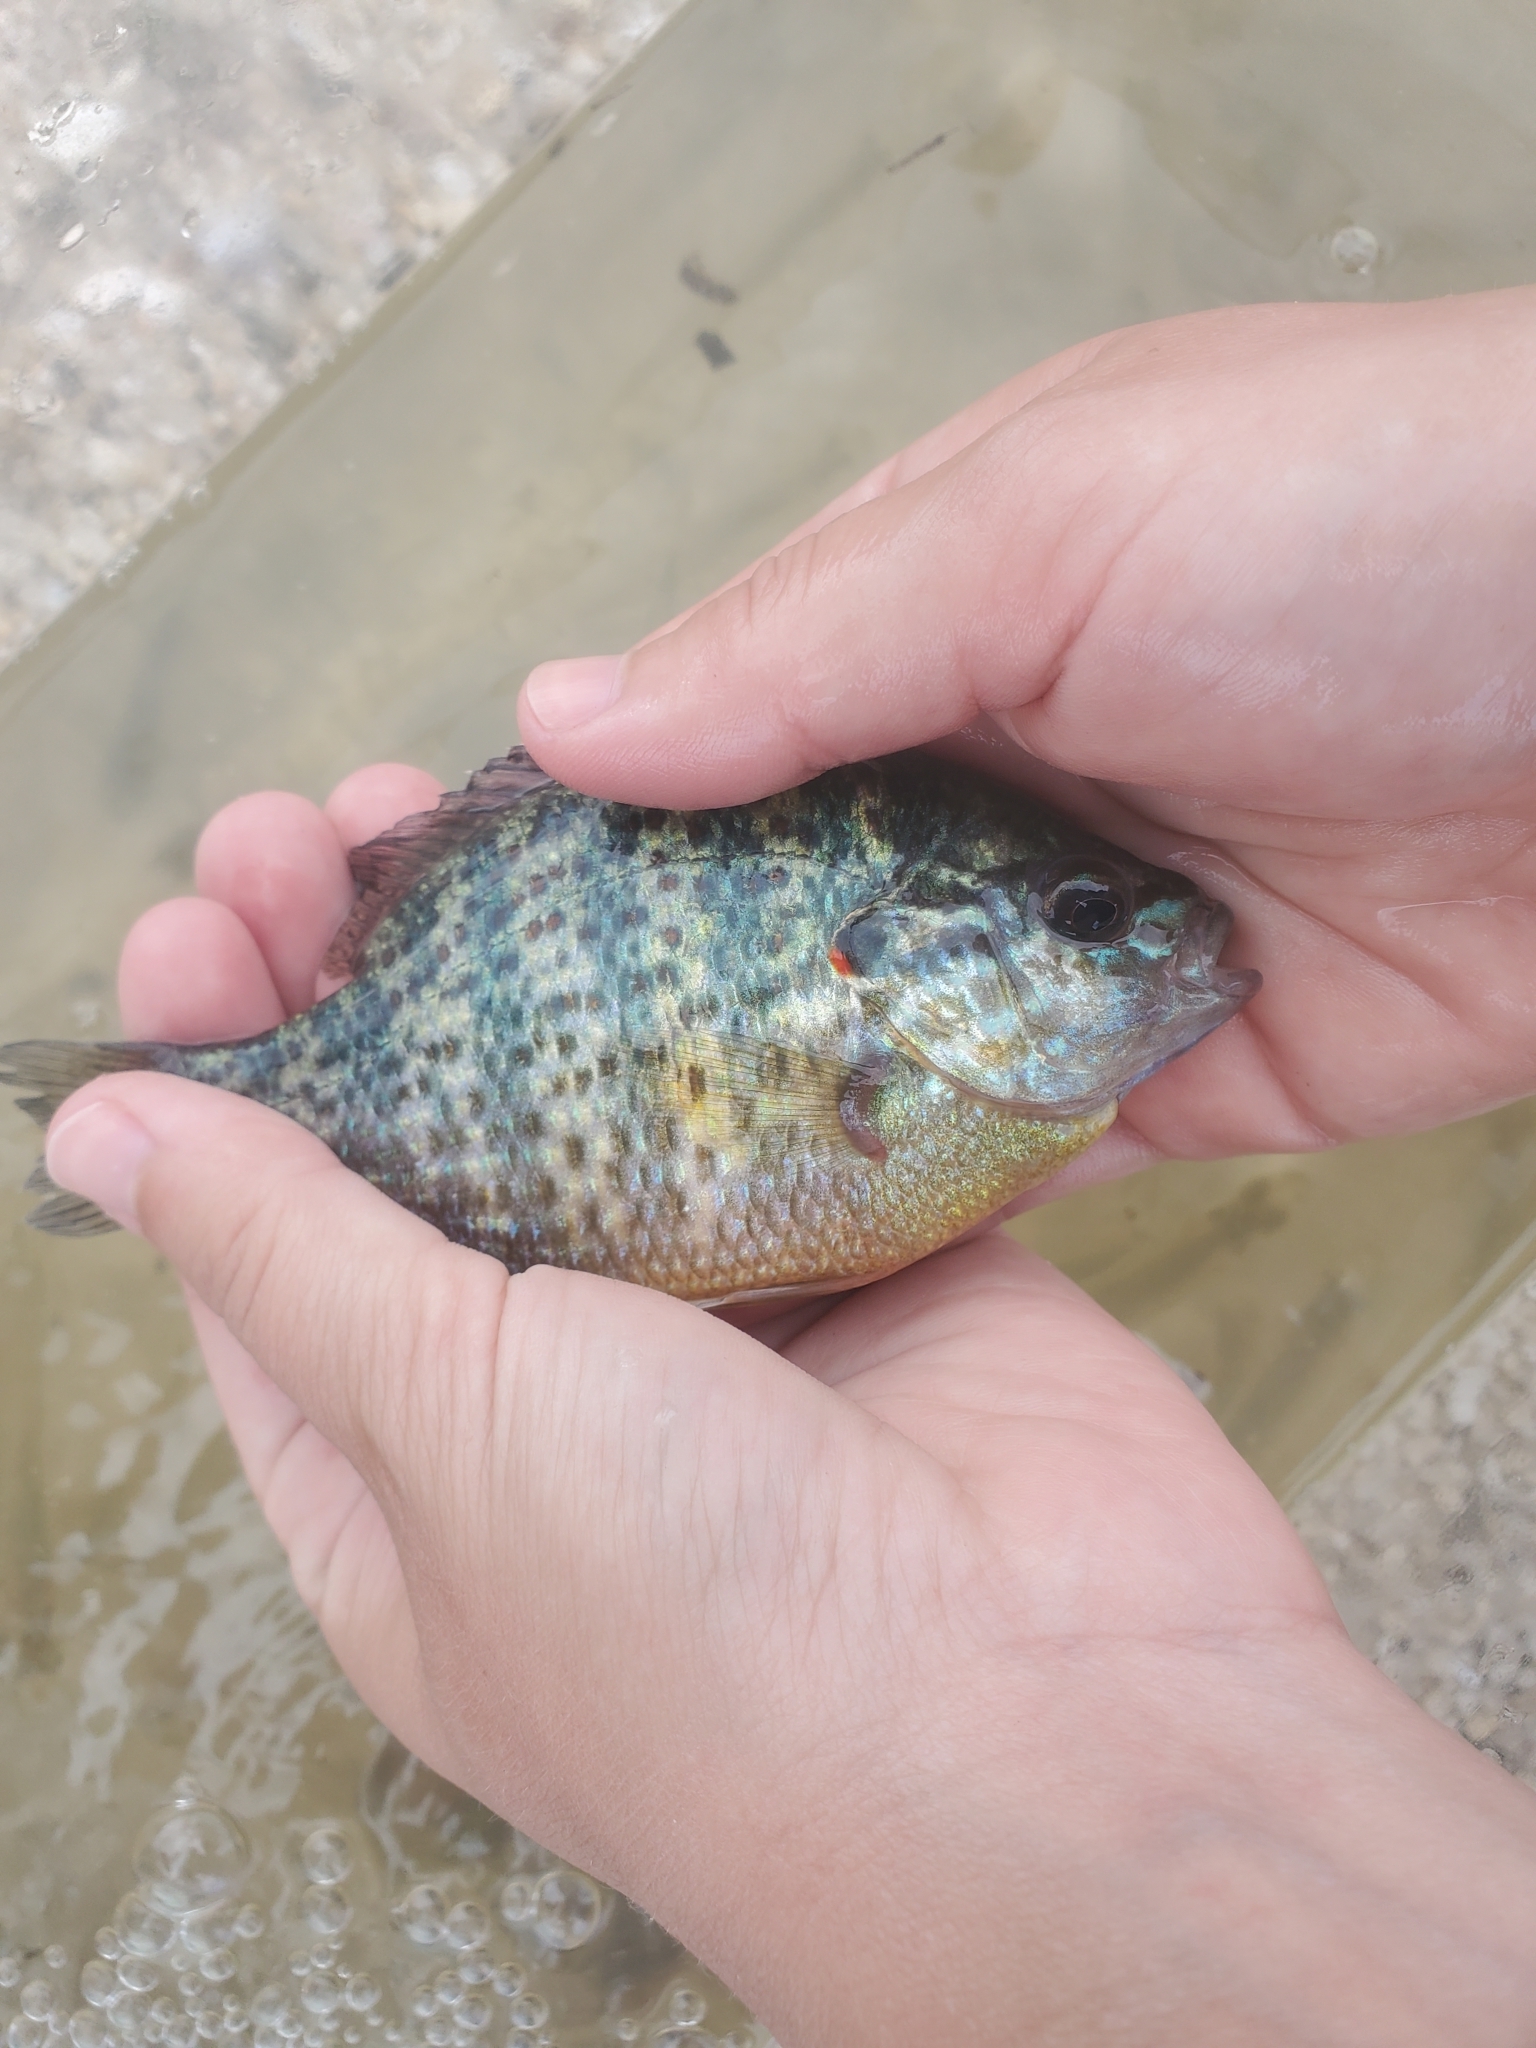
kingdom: Animalia
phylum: Chordata
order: Perciformes
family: Centrarchidae
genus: Lepomis
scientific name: Lepomis gibbosus
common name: Pumpkinseed
